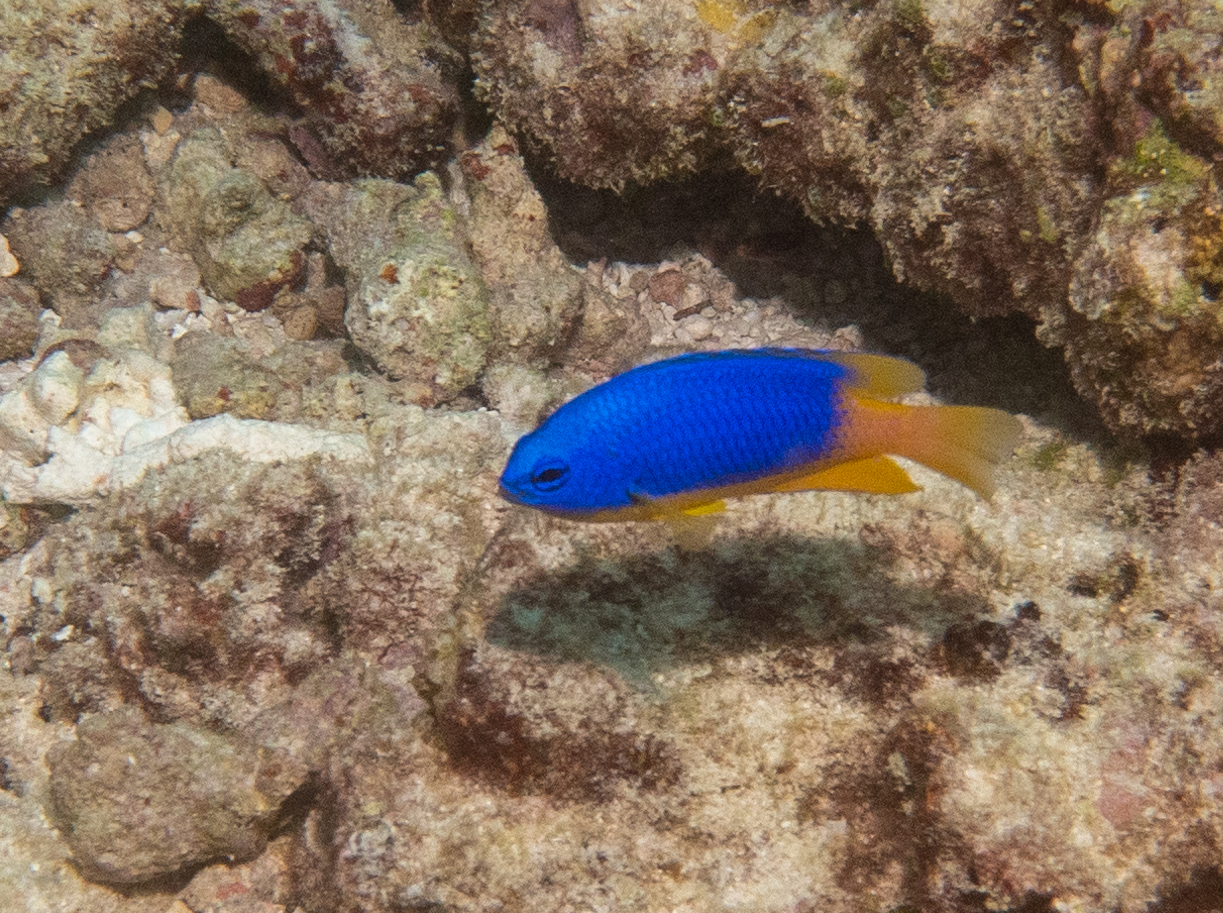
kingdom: Animalia
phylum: Chordata
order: Perciformes
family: Pomacentridae
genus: Pomacentrus
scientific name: Pomacentrus caeruleus
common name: Caerulean damsel
